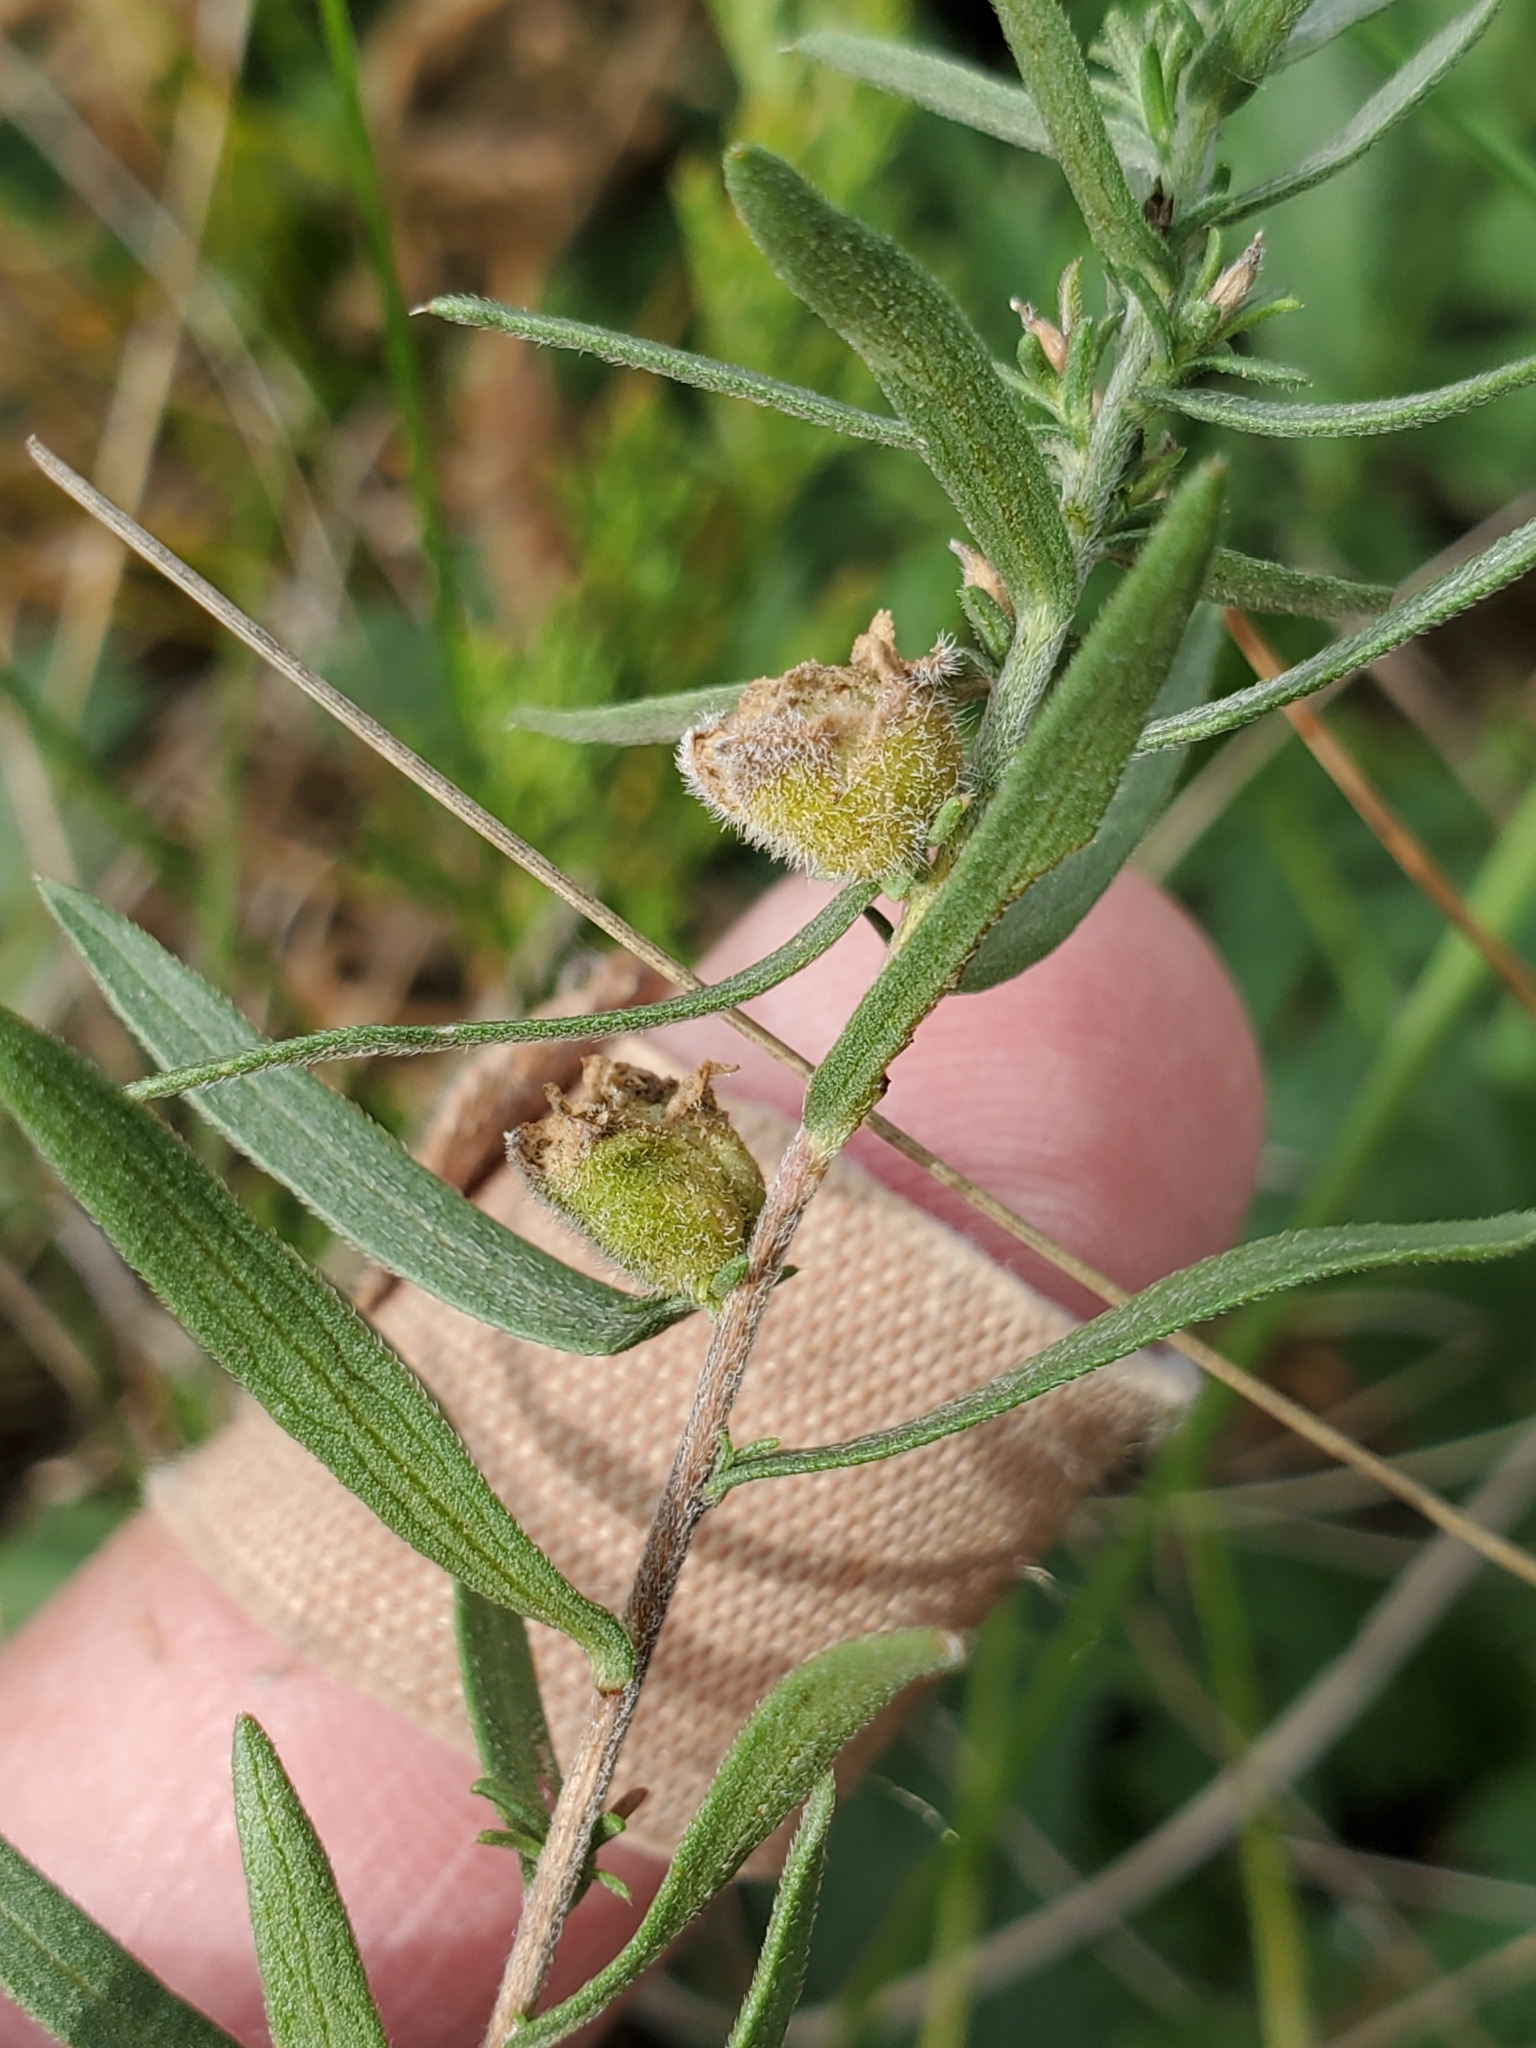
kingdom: Animalia
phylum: Arthropoda
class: Insecta
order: Diptera
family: Cecidomyiidae
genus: Rhopalomyia
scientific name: Rhopalomyia gemmaria
